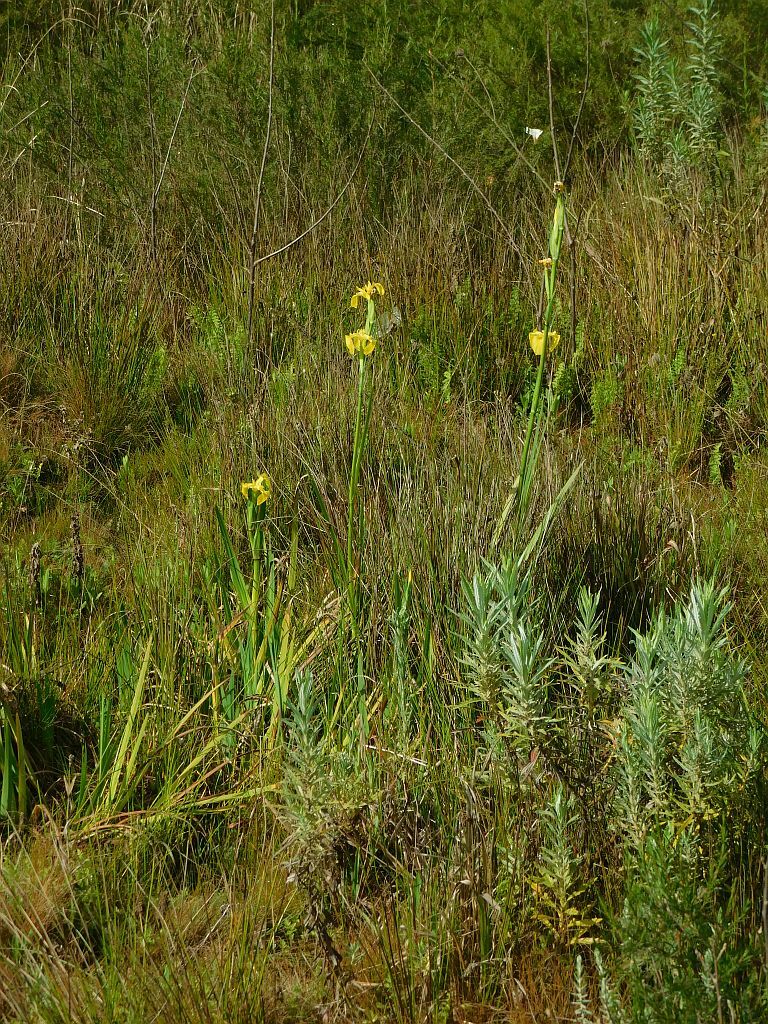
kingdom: Plantae
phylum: Tracheophyta
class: Liliopsida
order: Asparagales
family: Iridaceae
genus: Iris
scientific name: Iris pseudacorus
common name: Yellow flag
